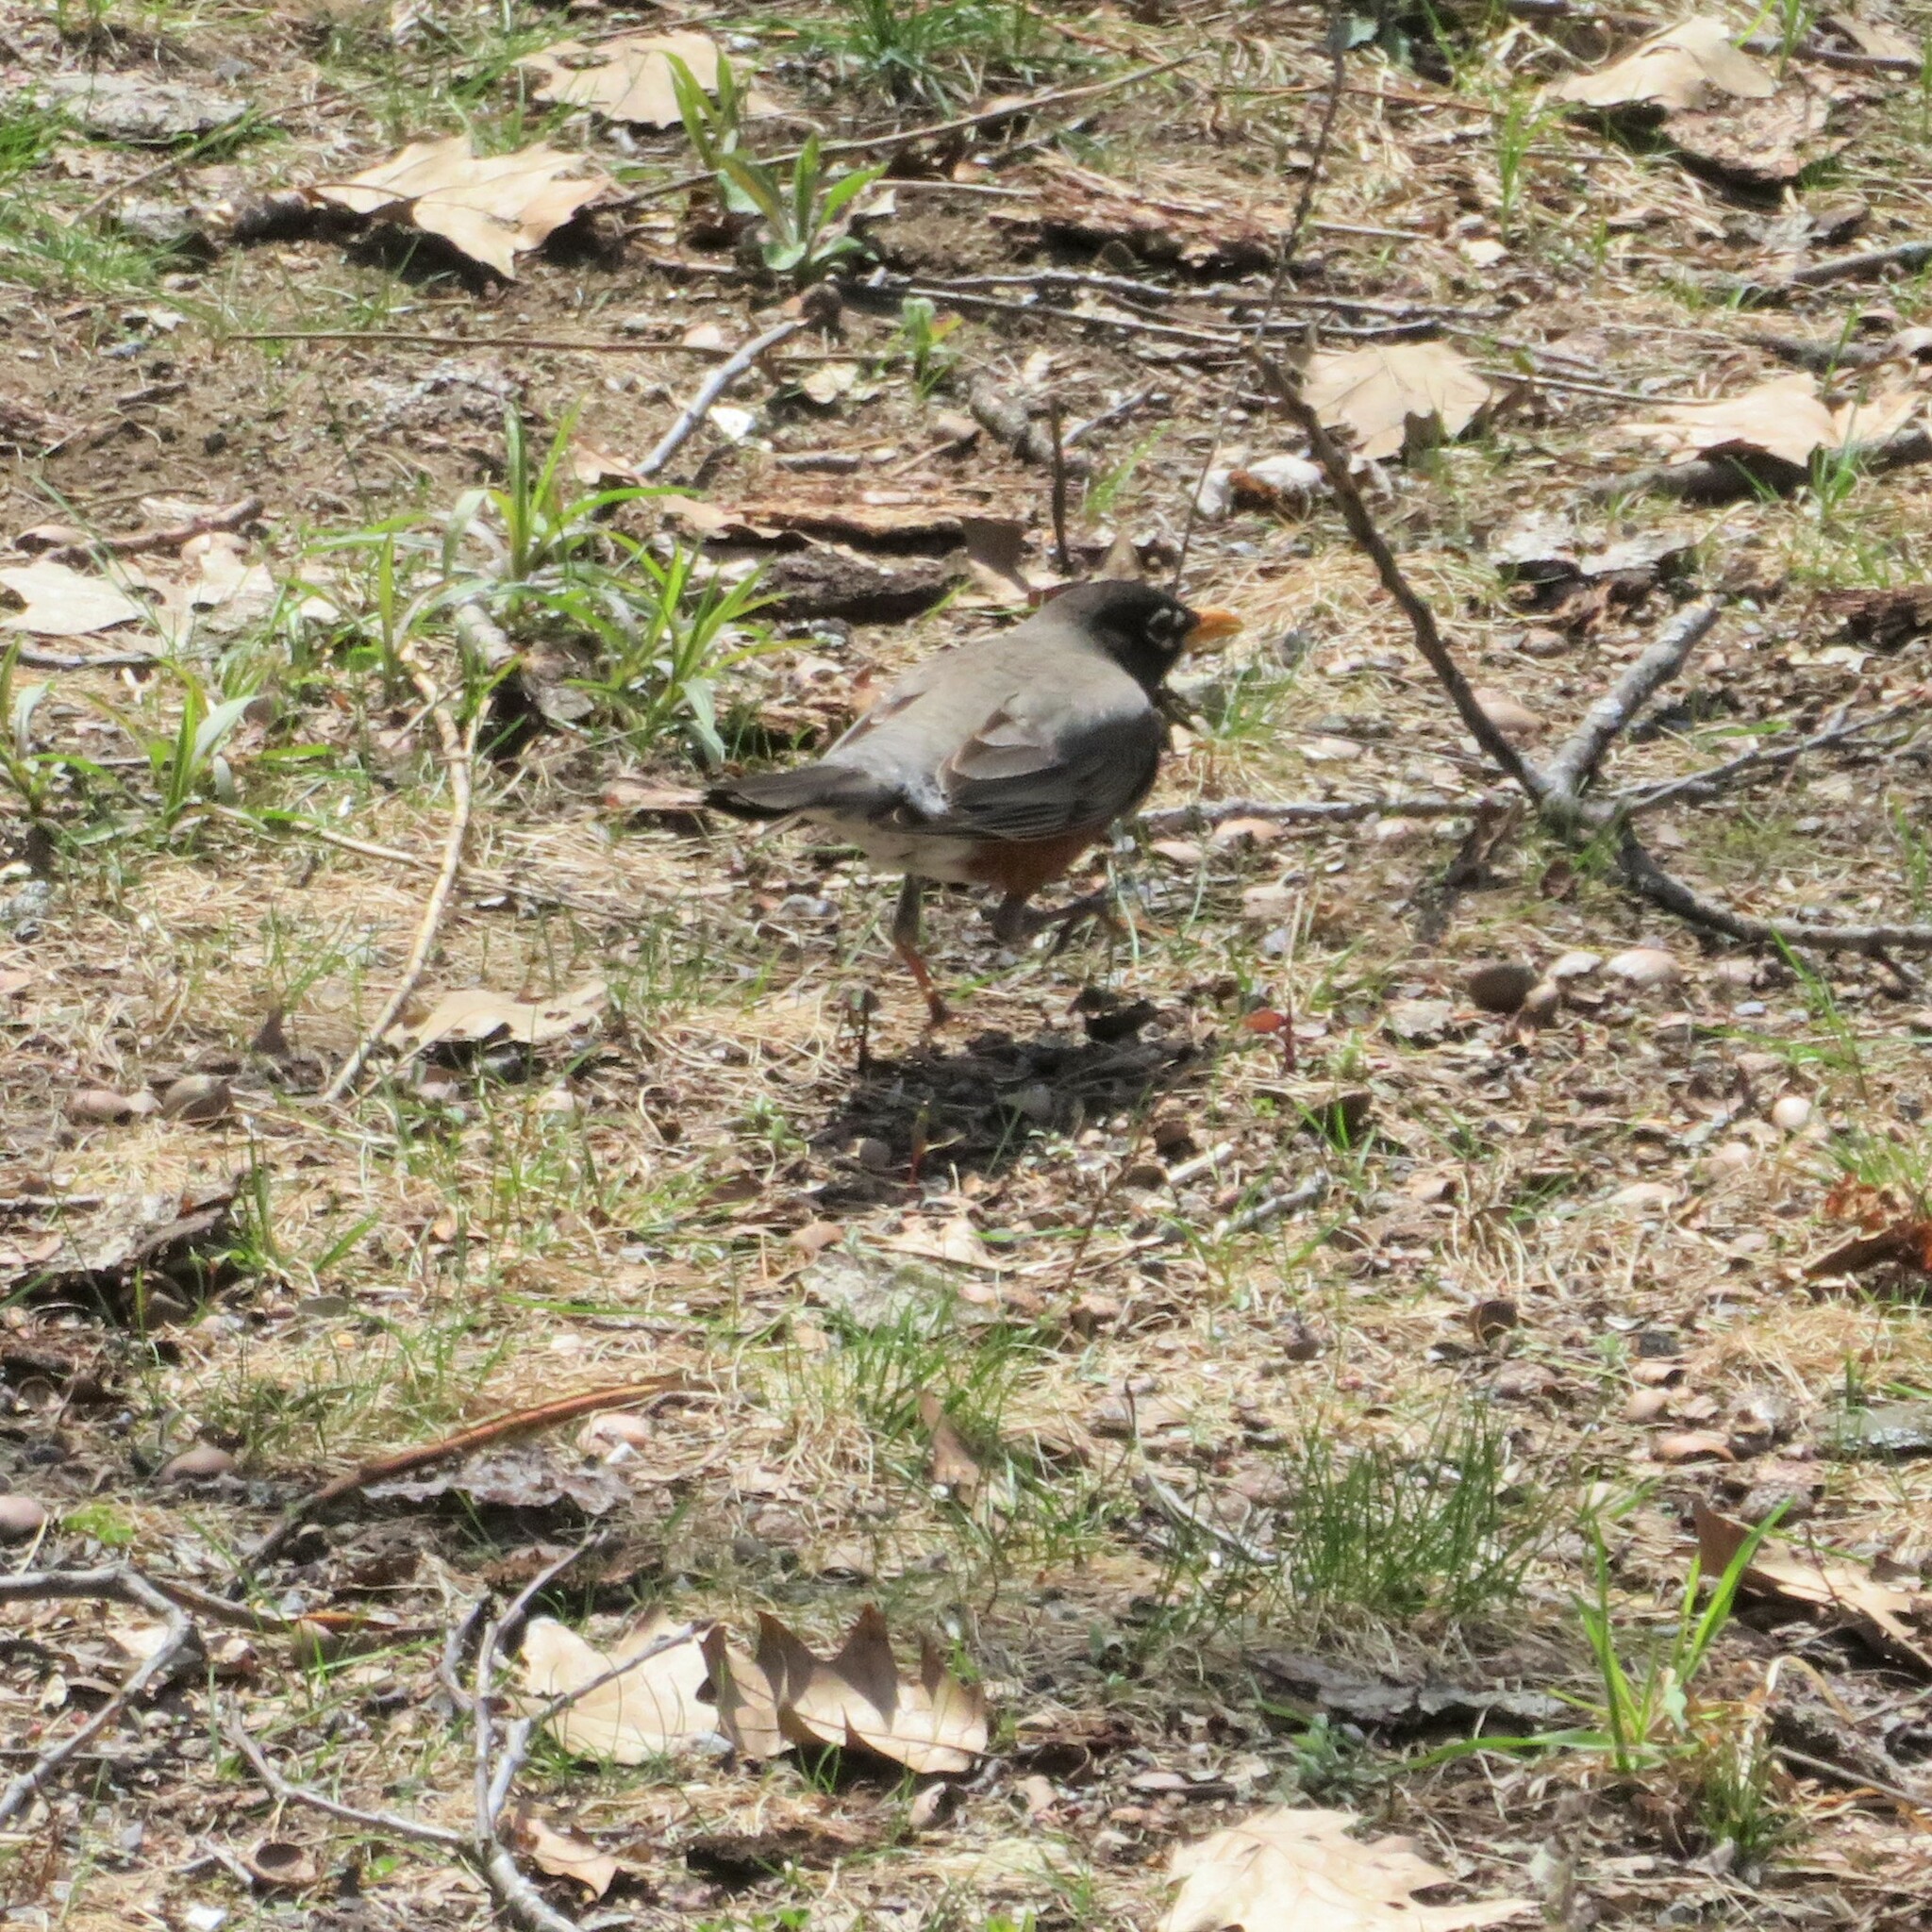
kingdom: Animalia
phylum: Chordata
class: Aves
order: Passeriformes
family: Turdidae
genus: Turdus
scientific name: Turdus migratorius
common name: American robin
